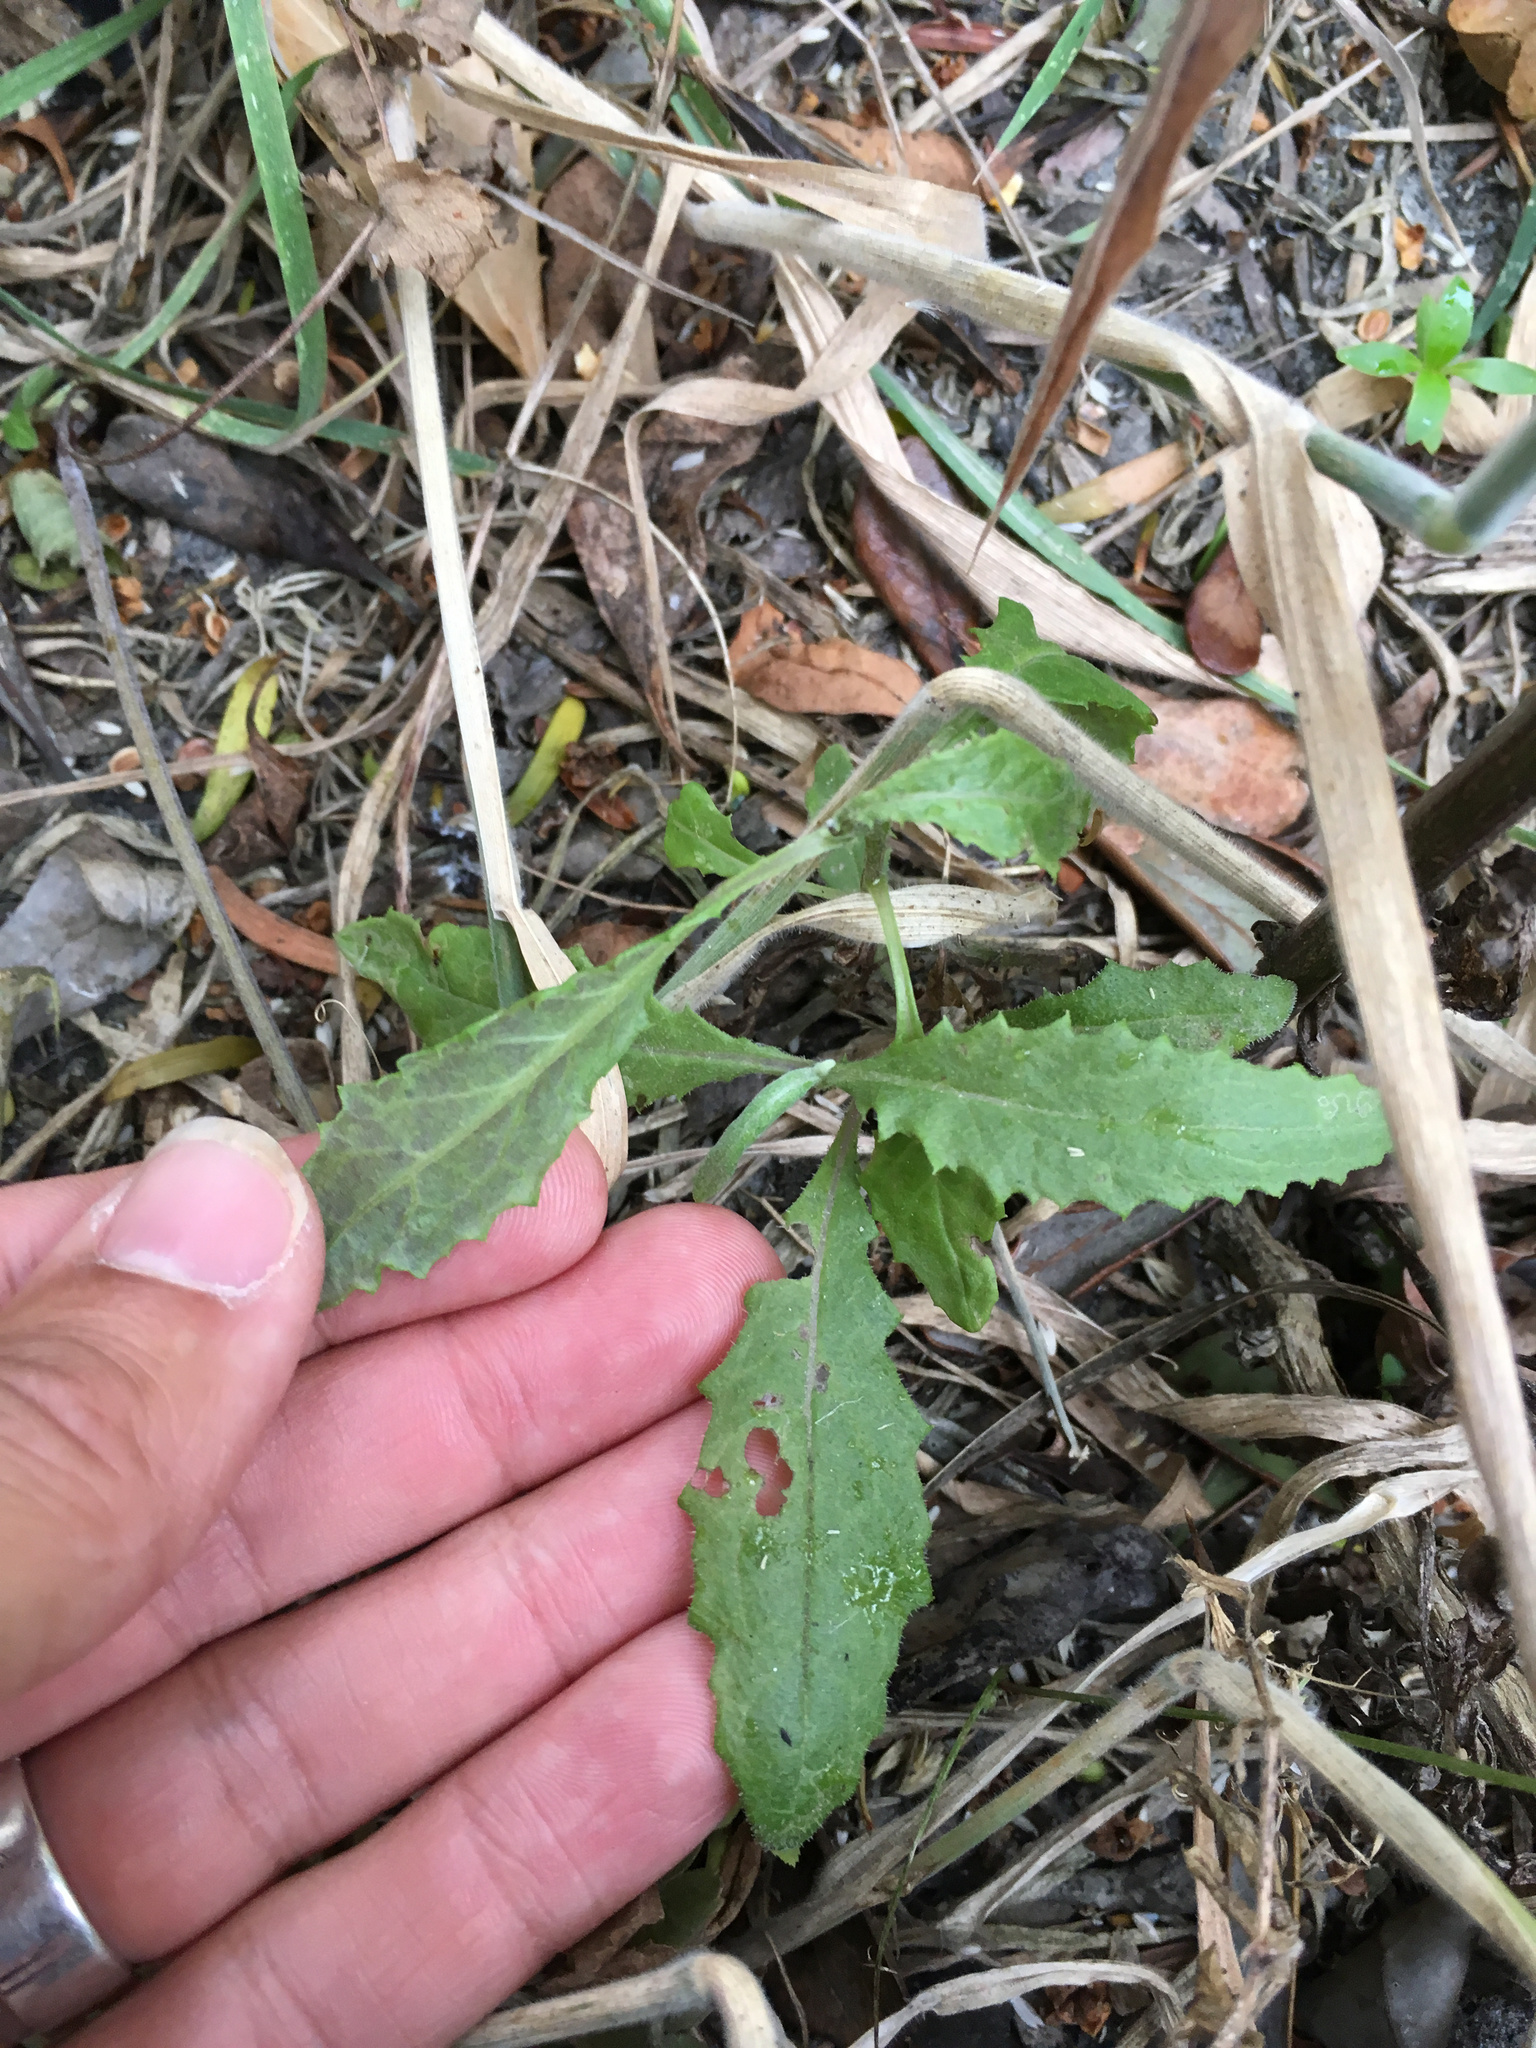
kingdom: Plantae
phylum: Tracheophyta
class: Magnoliopsida
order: Asterales
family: Asteraceae
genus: Senecio
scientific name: Senecio minimus
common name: Toothed fireweed
